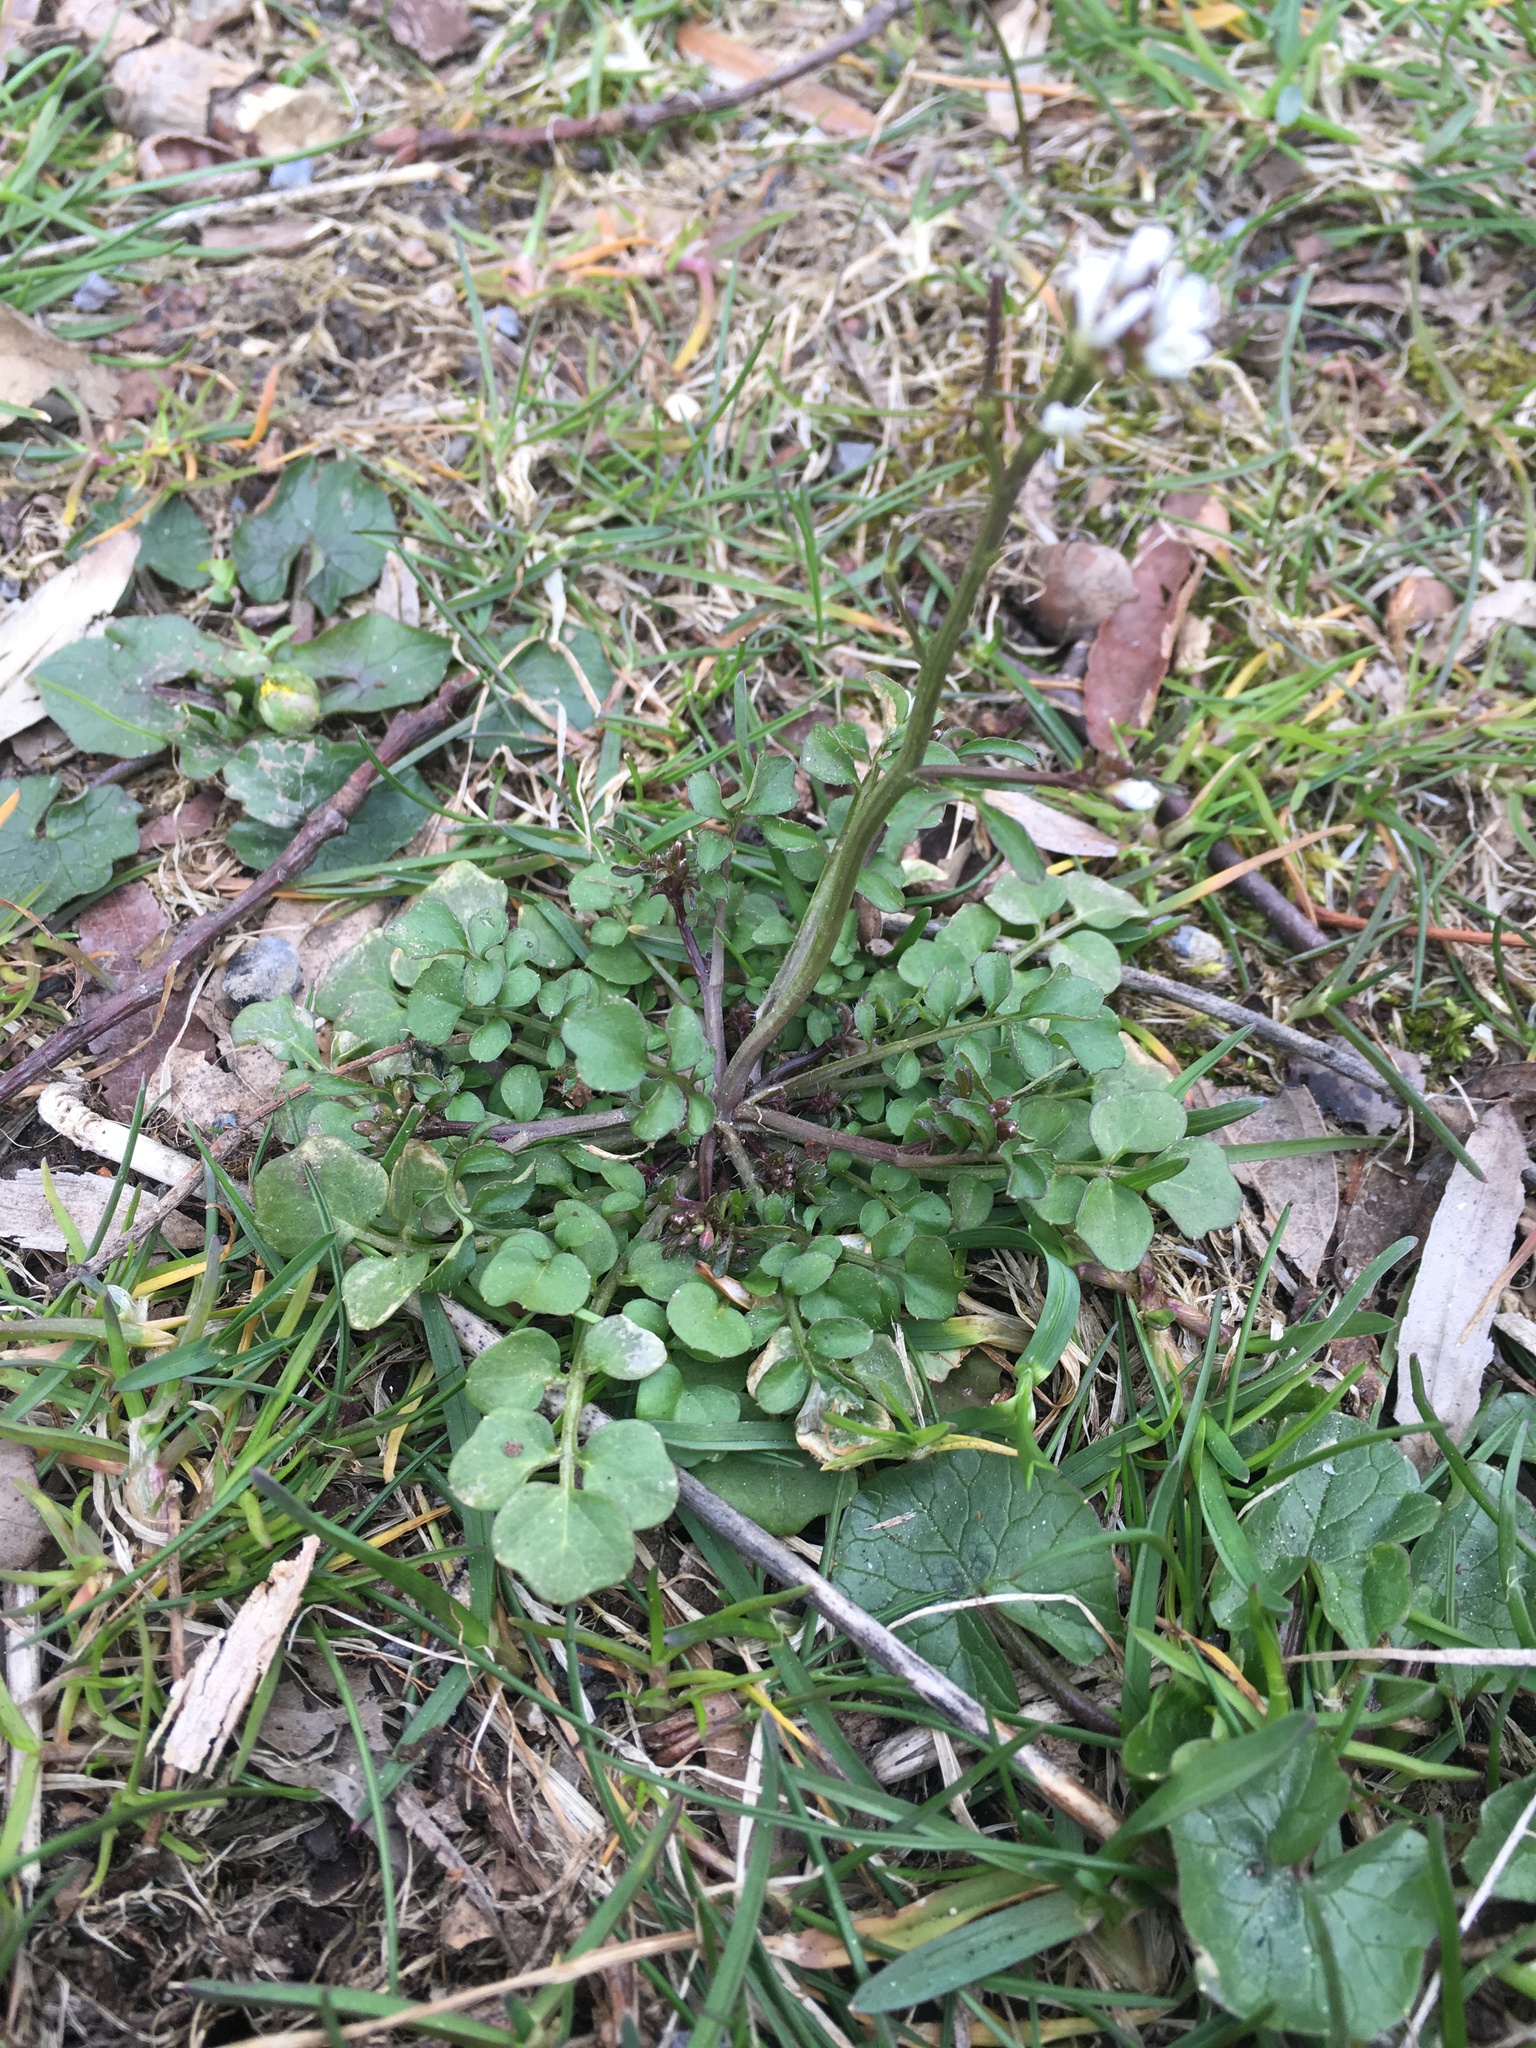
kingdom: Plantae
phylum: Tracheophyta
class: Magnoliopsida
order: Brassicales
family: Brassicaceae
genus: Cardamine
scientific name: Cardamine hirsuta
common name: Hairy bittercress
